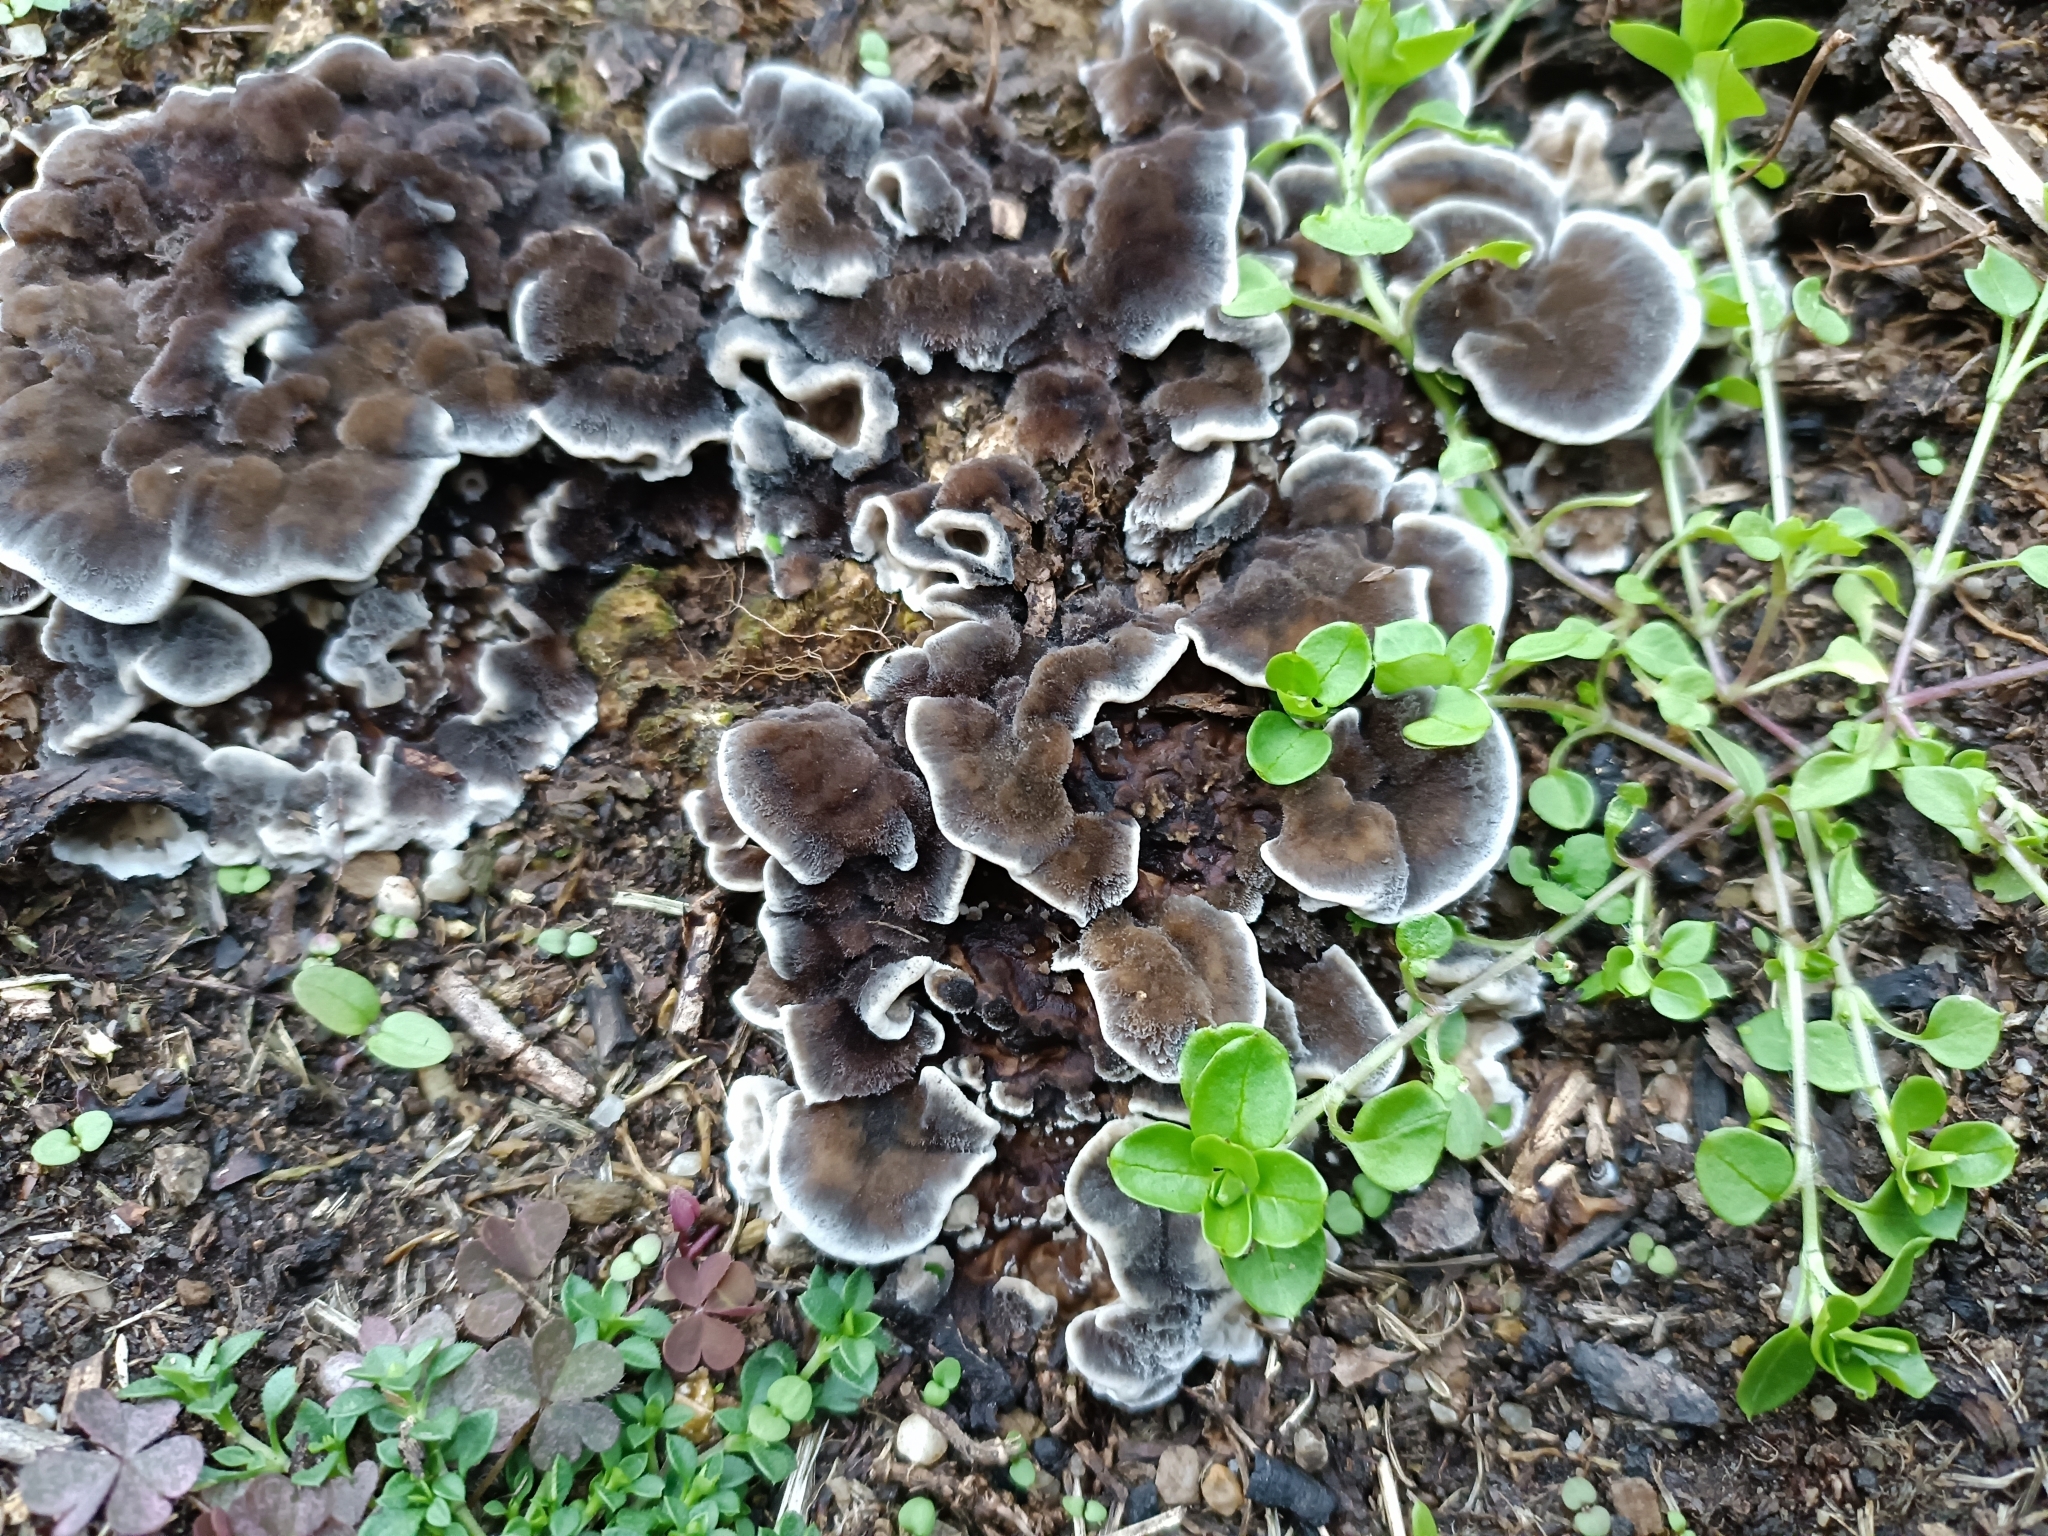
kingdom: Fungi
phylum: Basidiomycota
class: Agaricomycetes
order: Polyporales
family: Phanerochaetaceae
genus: Bjerkandera
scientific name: Bjerkandera adusta
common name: Smoky bracket
